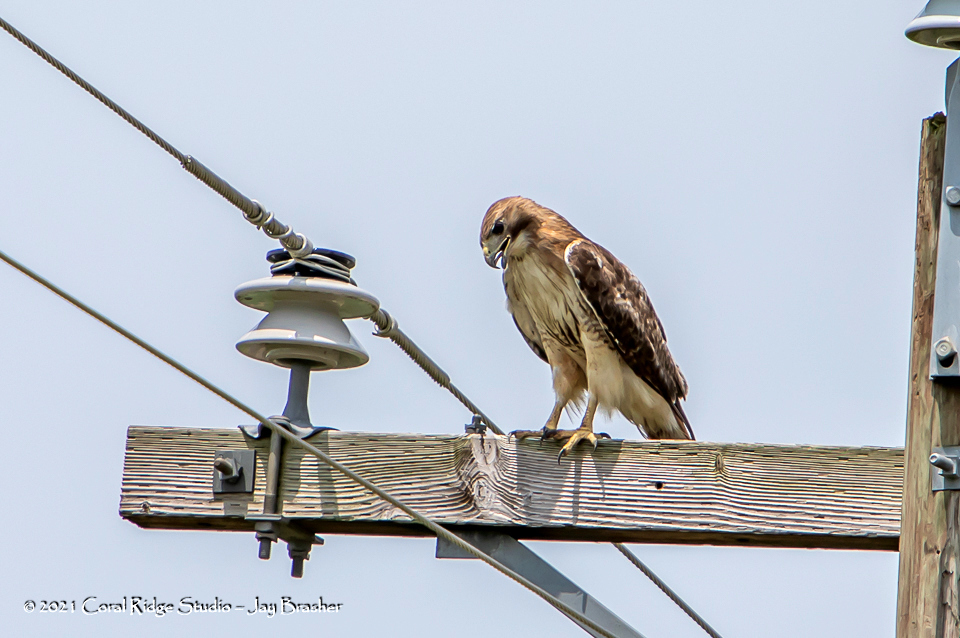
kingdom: Animalia
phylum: Chordata
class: Aves
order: Accipitriformes
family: Accipitridae
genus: Buteo
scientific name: Buteo jamaicensis
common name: Red-tailed hawk
